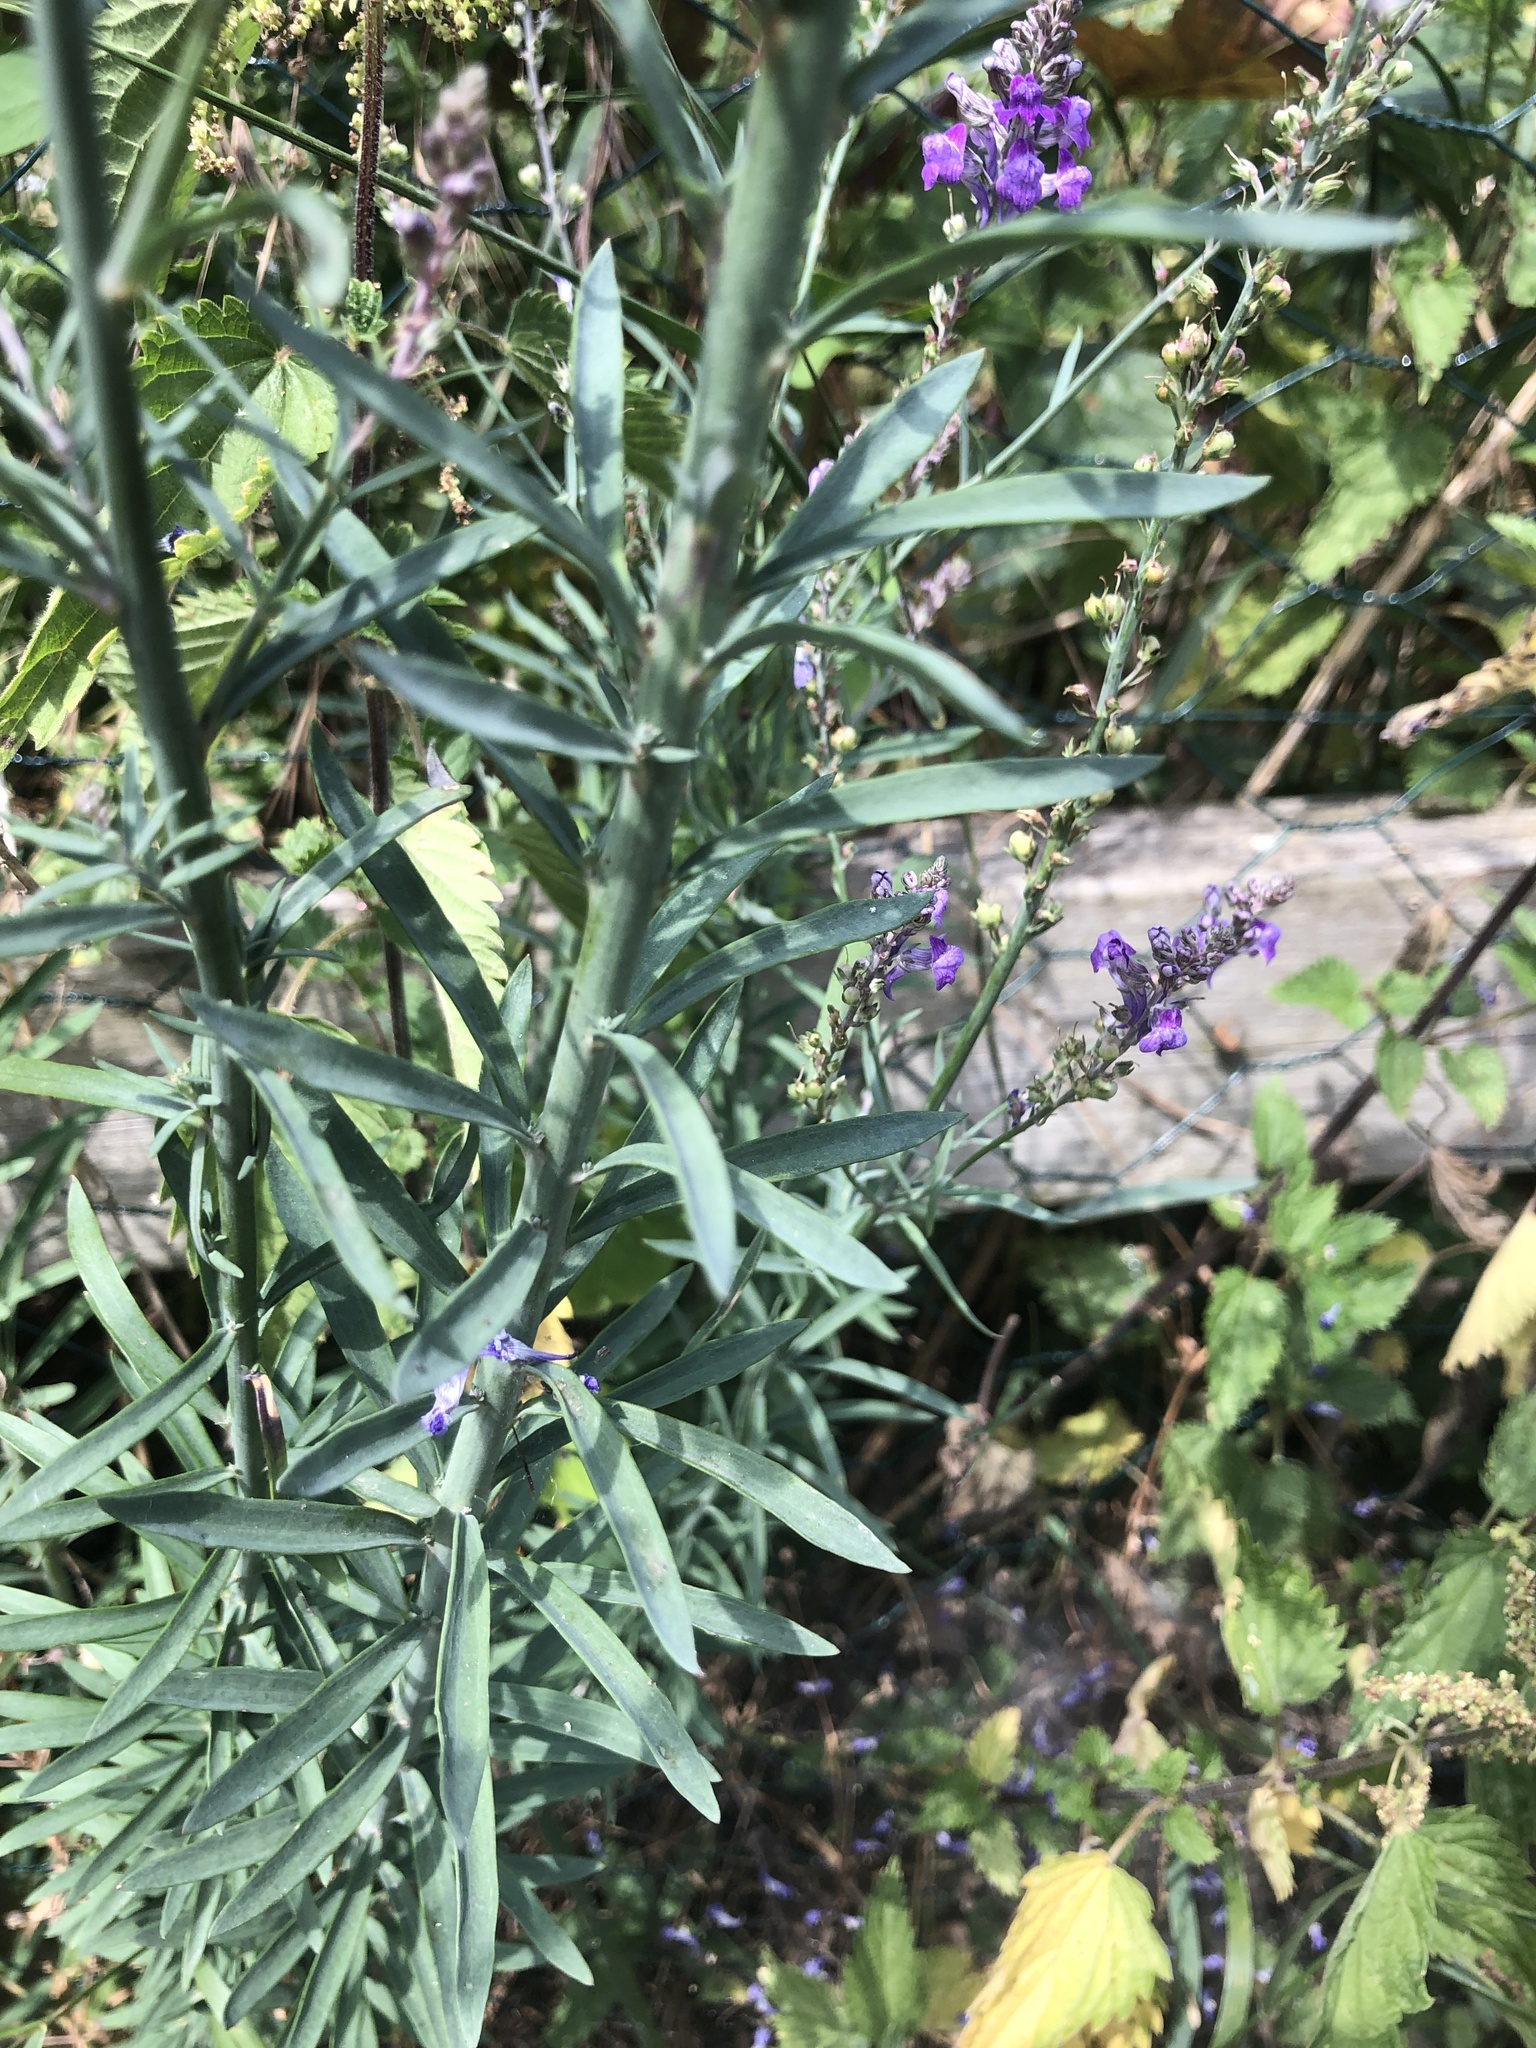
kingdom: Plantae
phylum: Tracheophyta
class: Magnoliopsida
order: Lamiales
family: Plantaginaceae
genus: Linaria
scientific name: Linaria purpurea
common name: Purple toadflax
